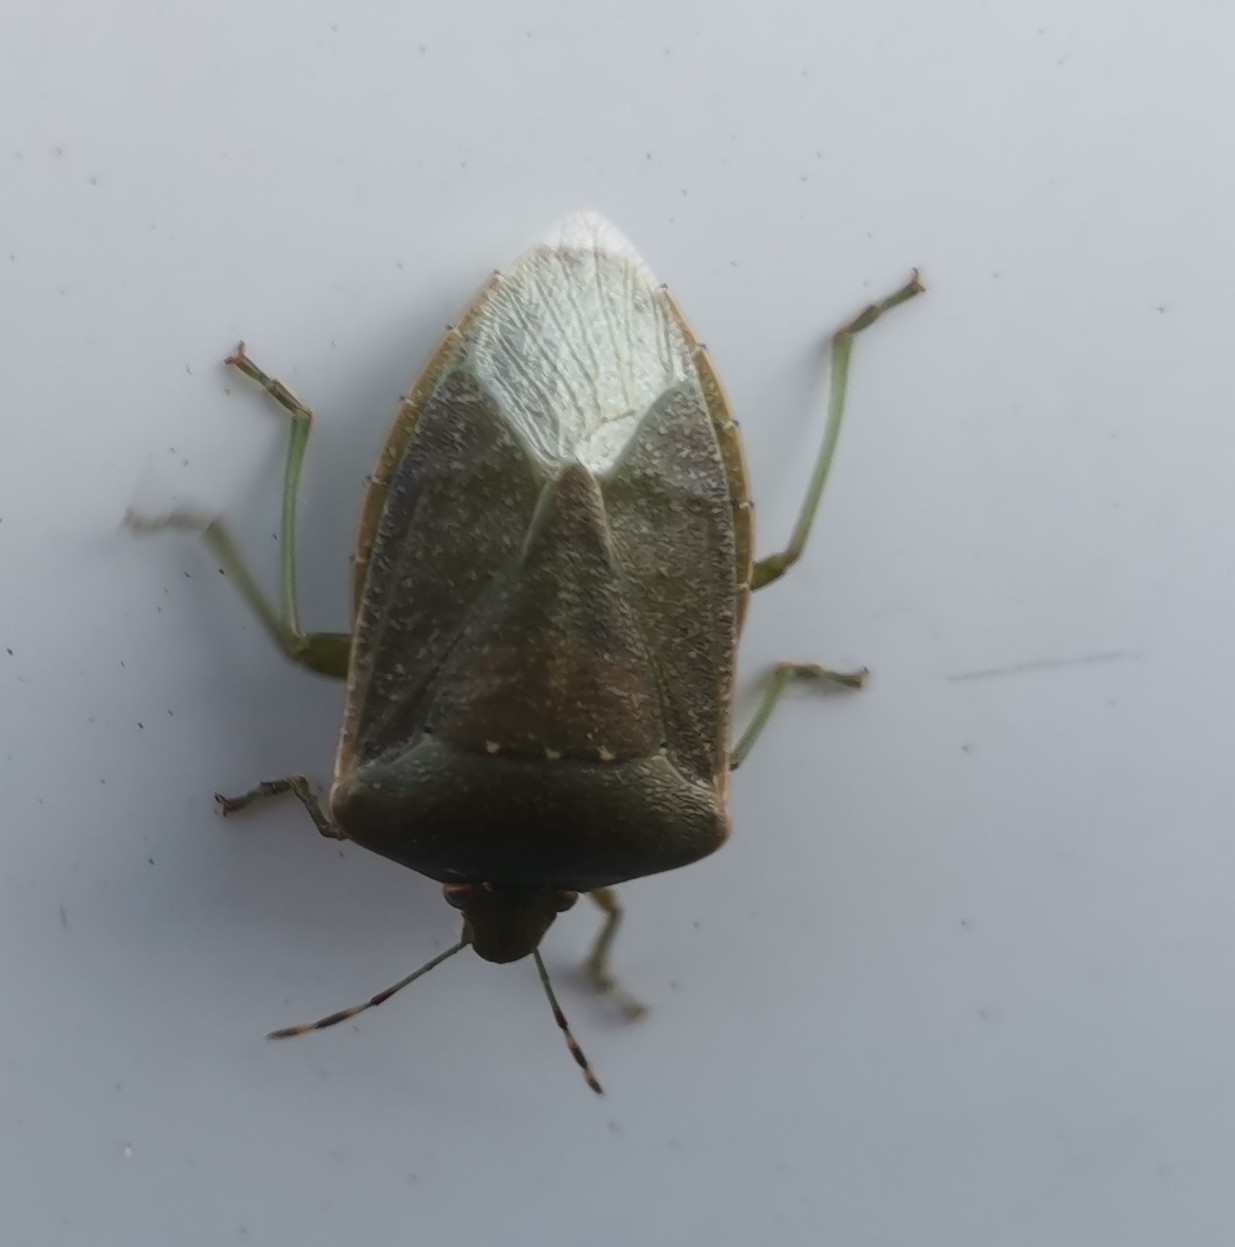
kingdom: Animalia
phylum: Arthropoda
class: Insecta
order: Hemiptera
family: Pentatomidae
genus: Nezara
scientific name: Nezara viridula
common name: Southern green stink bug
